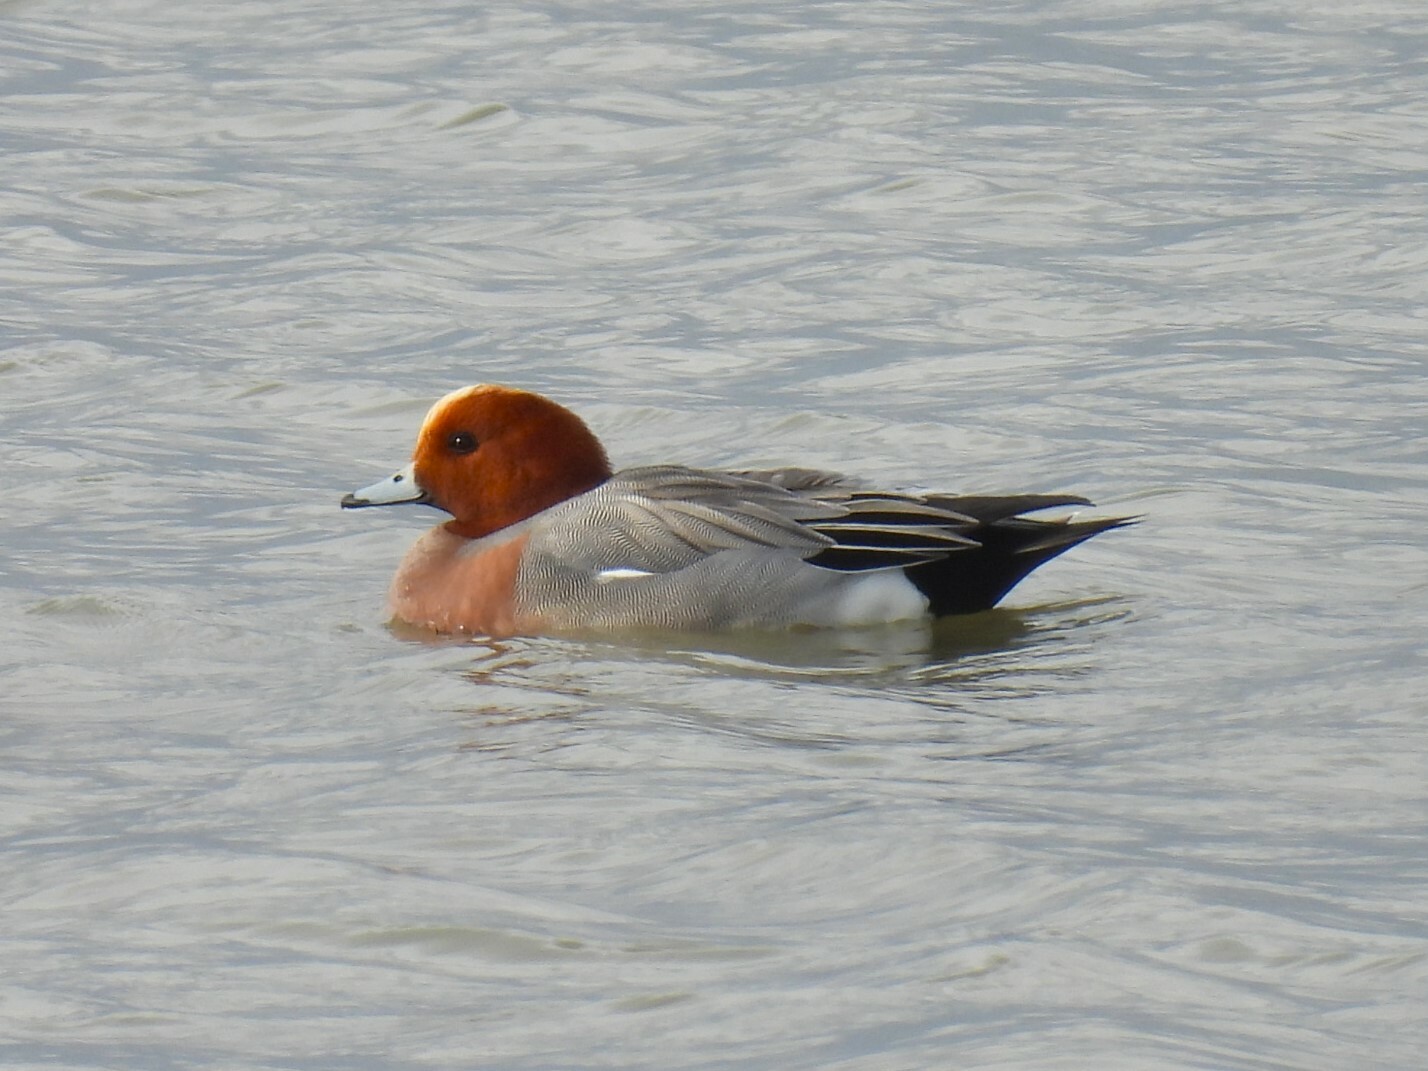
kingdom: Animalia
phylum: Chordata
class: Aves
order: Anseriformes
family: Anatidae
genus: Mareca
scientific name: Mareca penelope
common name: Eurasian wigeon
